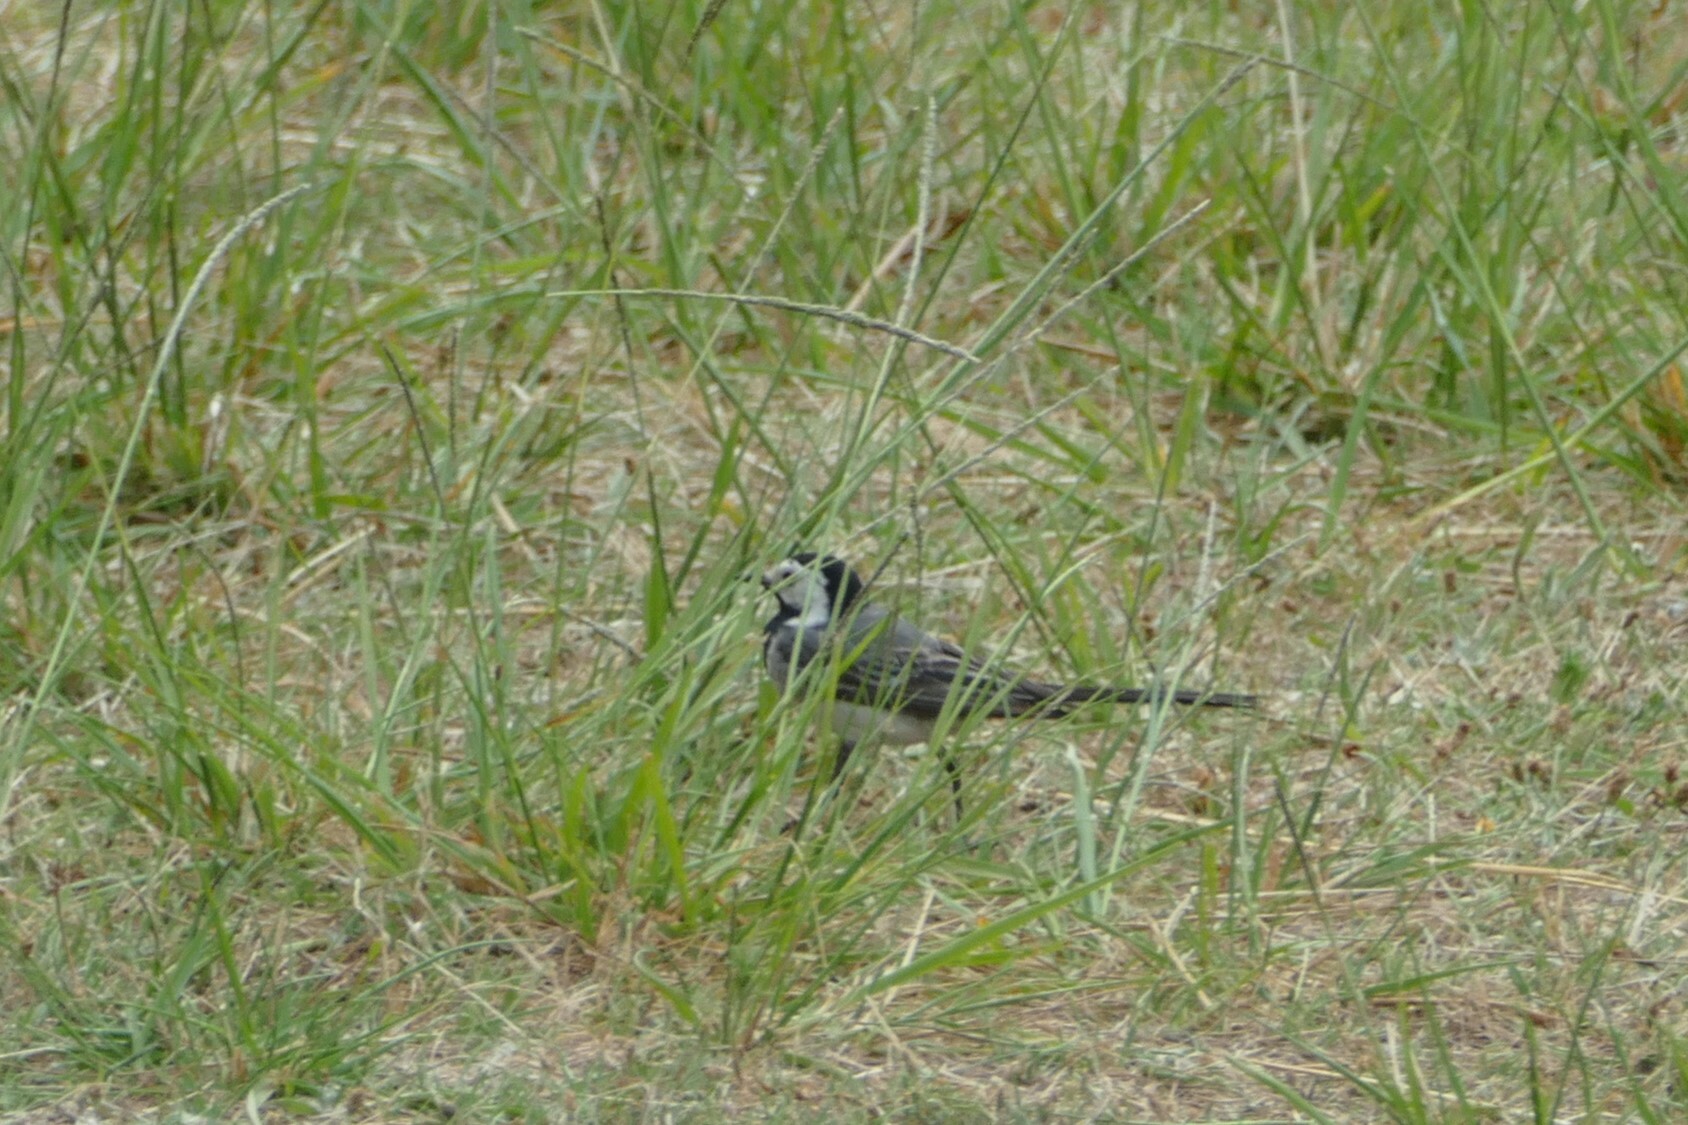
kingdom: Animalia
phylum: Chordata
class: Aves
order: Passeriformes
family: Motacillidae
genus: Motacilla
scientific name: Motacilla alba
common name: White wagtail
